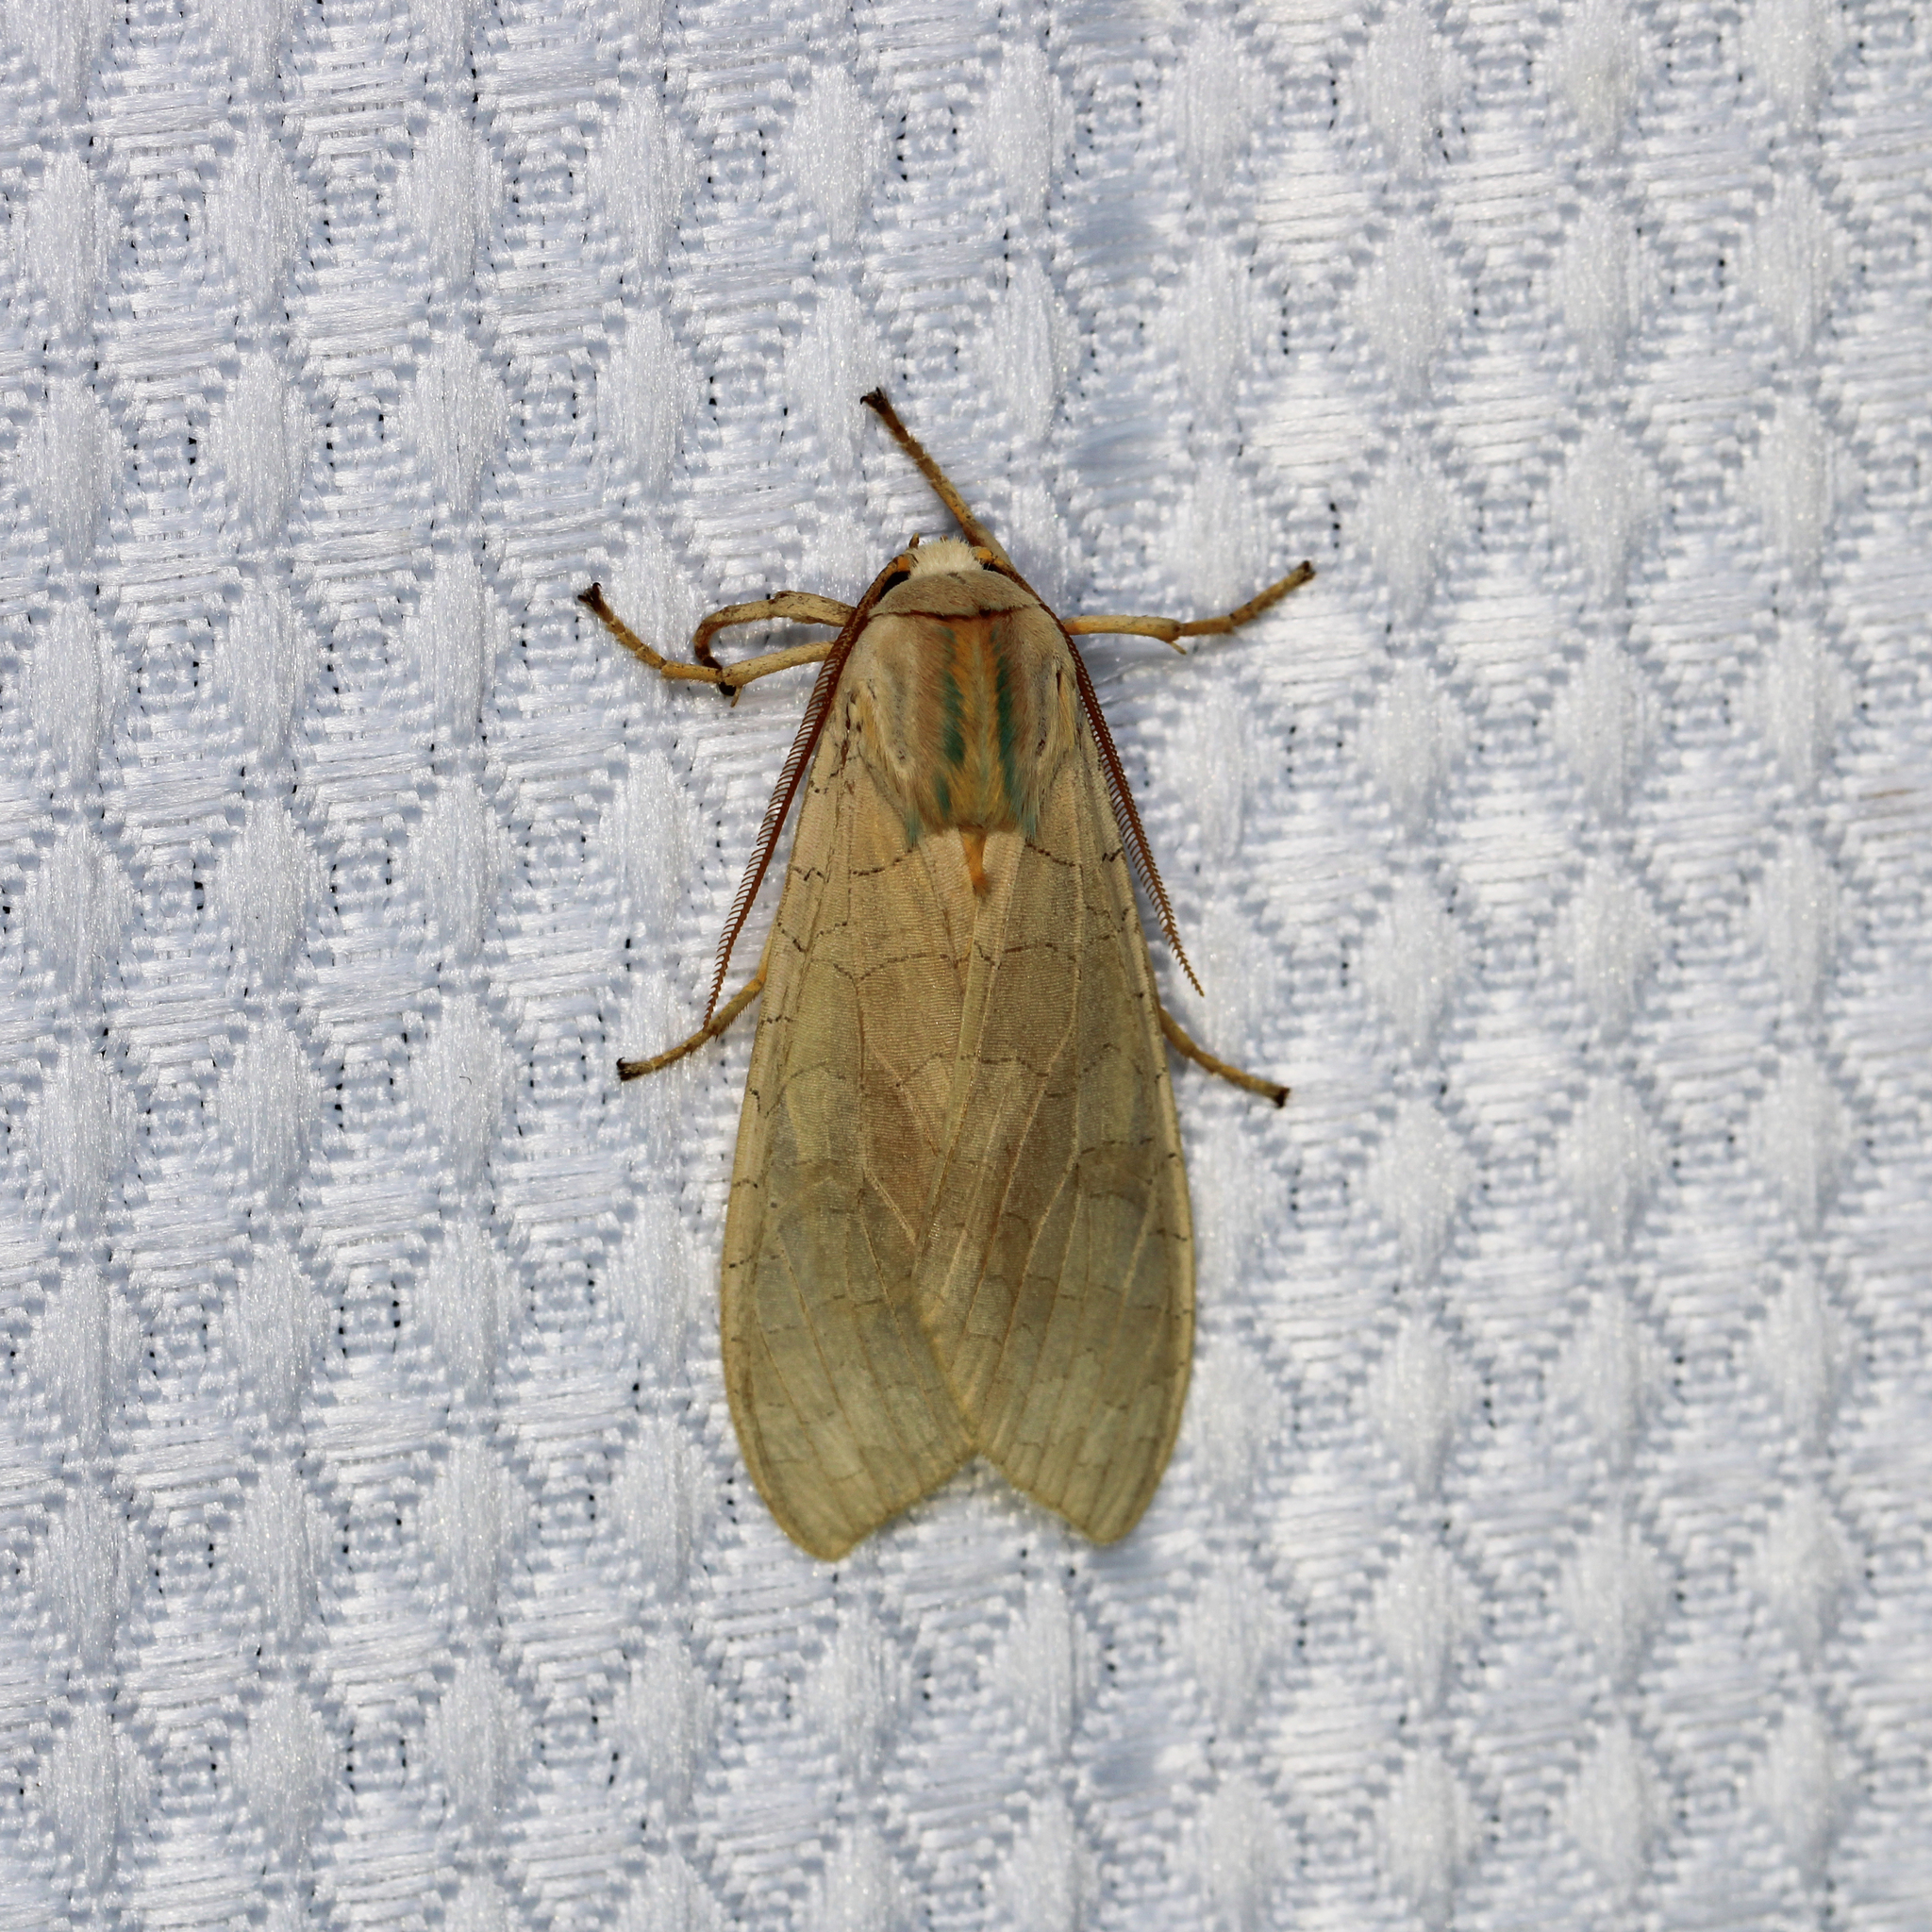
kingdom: Animalia
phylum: Arthropoda
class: Insecta
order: Lepidoptera
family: Erebidae
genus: Halysidota
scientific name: Halysidota
